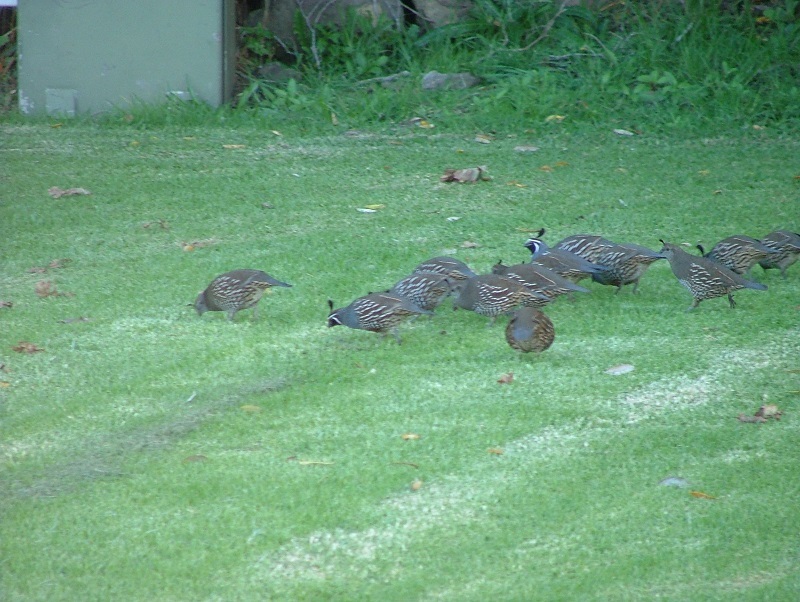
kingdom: Animalia
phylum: Chordata
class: Aves
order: Galliformes
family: Odontophoridae
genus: Callipepla
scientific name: Callipepla californica
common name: California quail
